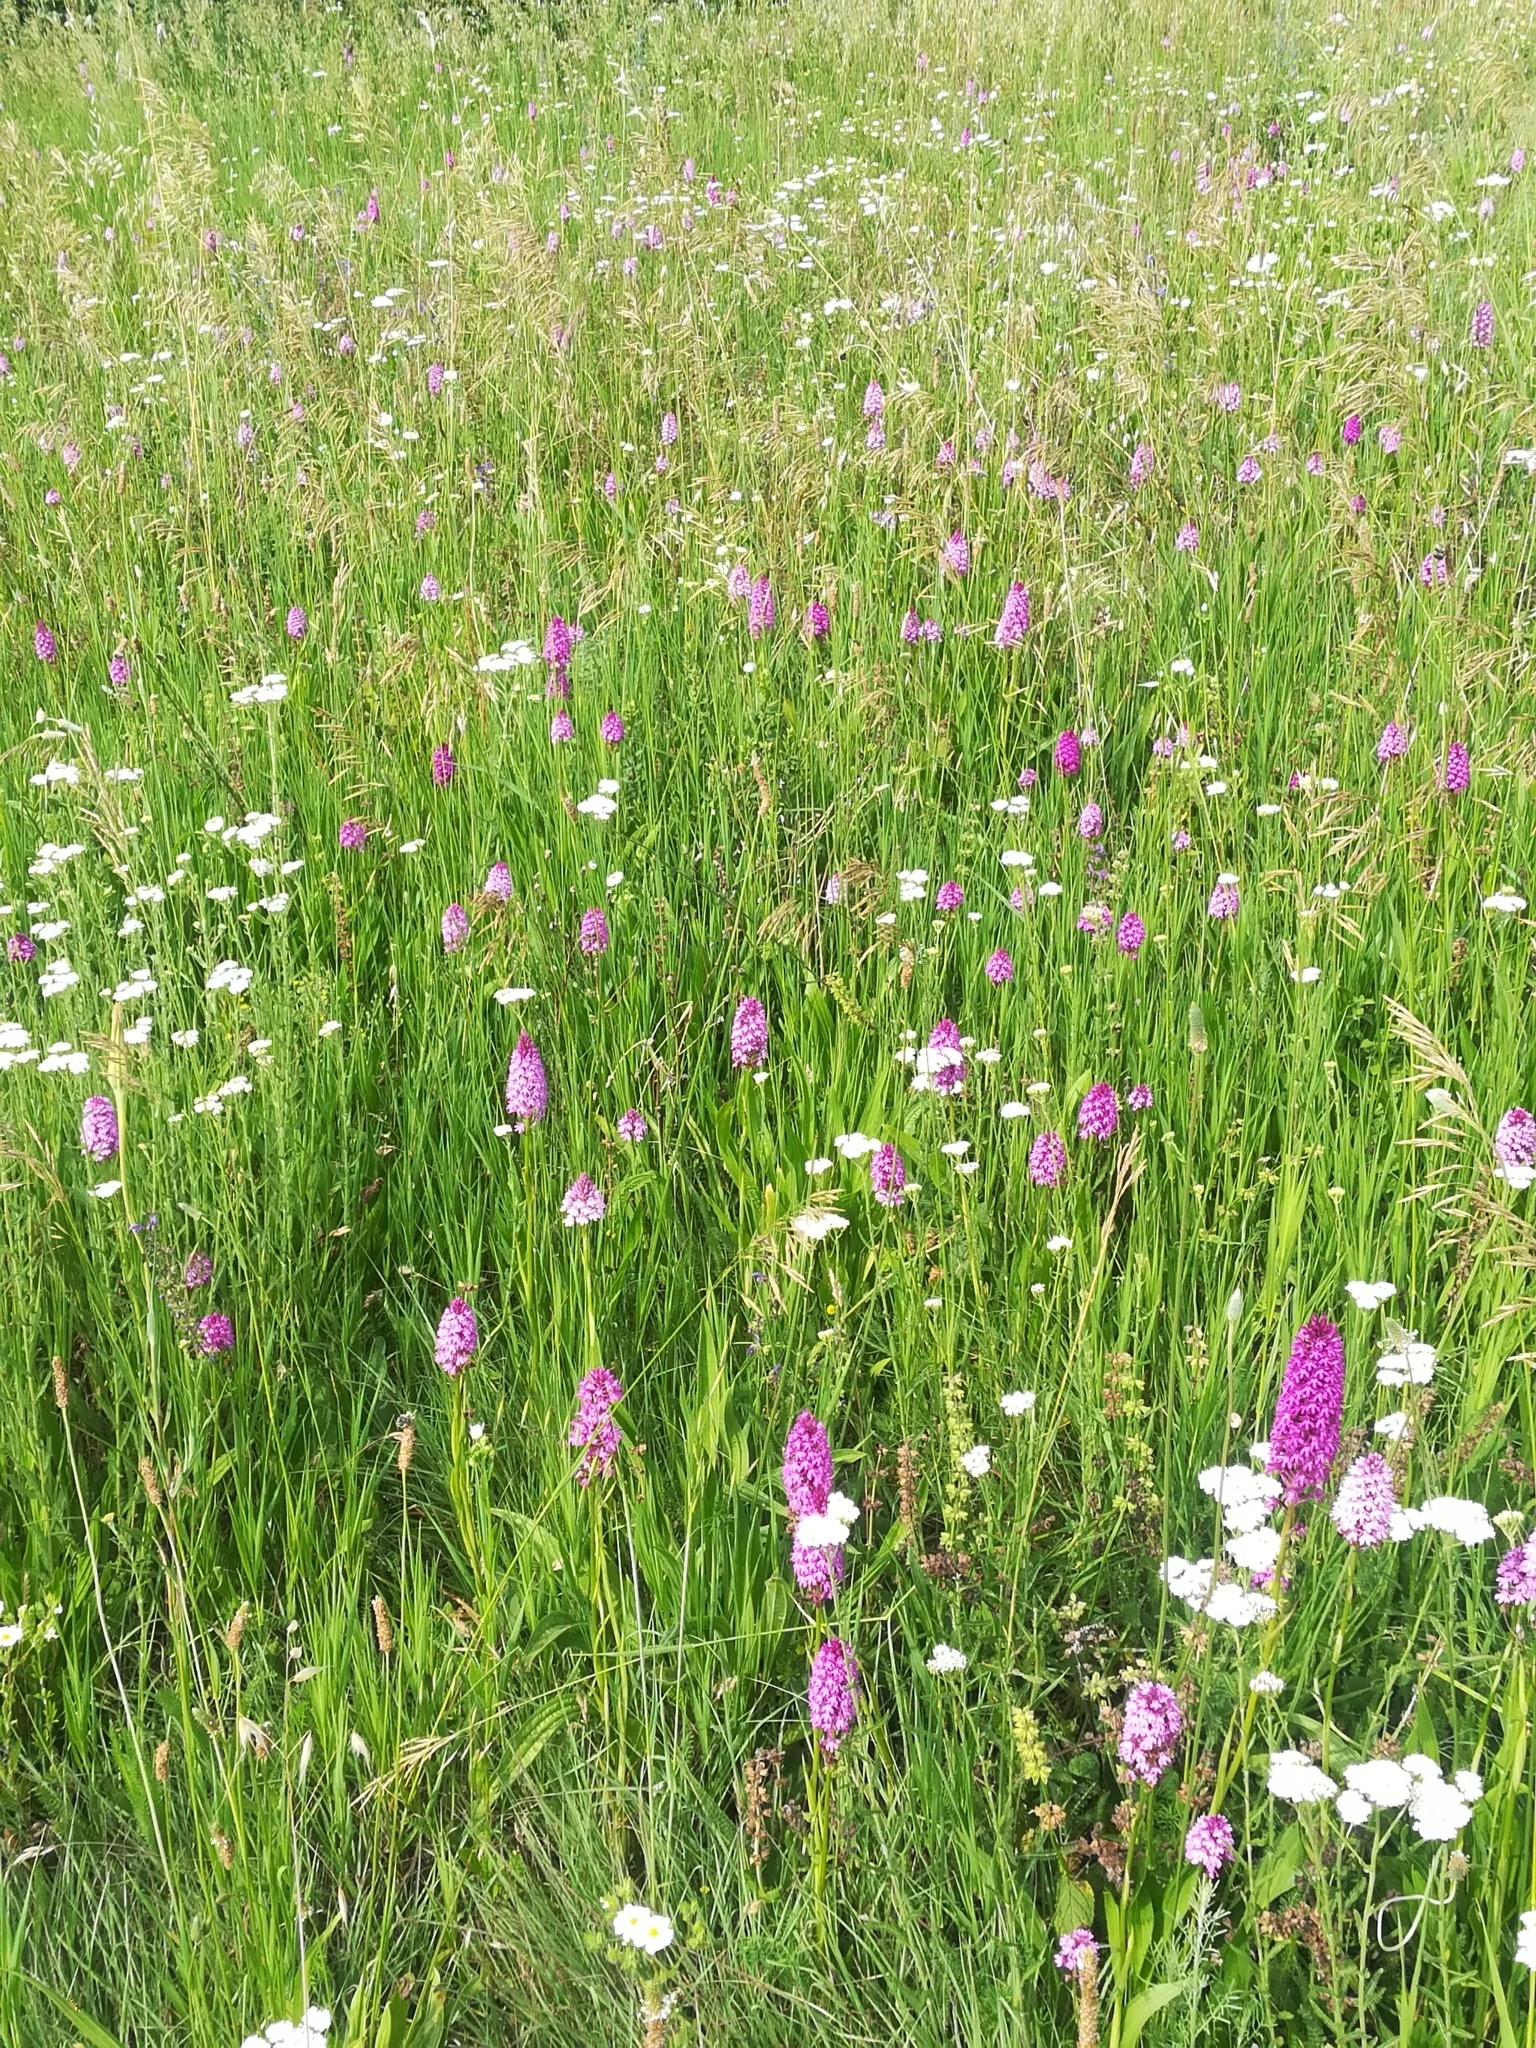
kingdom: Plantae
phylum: Tracheophyta
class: Liliopsida
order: Asparagales
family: Orchidaceae
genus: Anacamptis
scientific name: Anacamptis pyramidalis
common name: Pyramidal orchid
